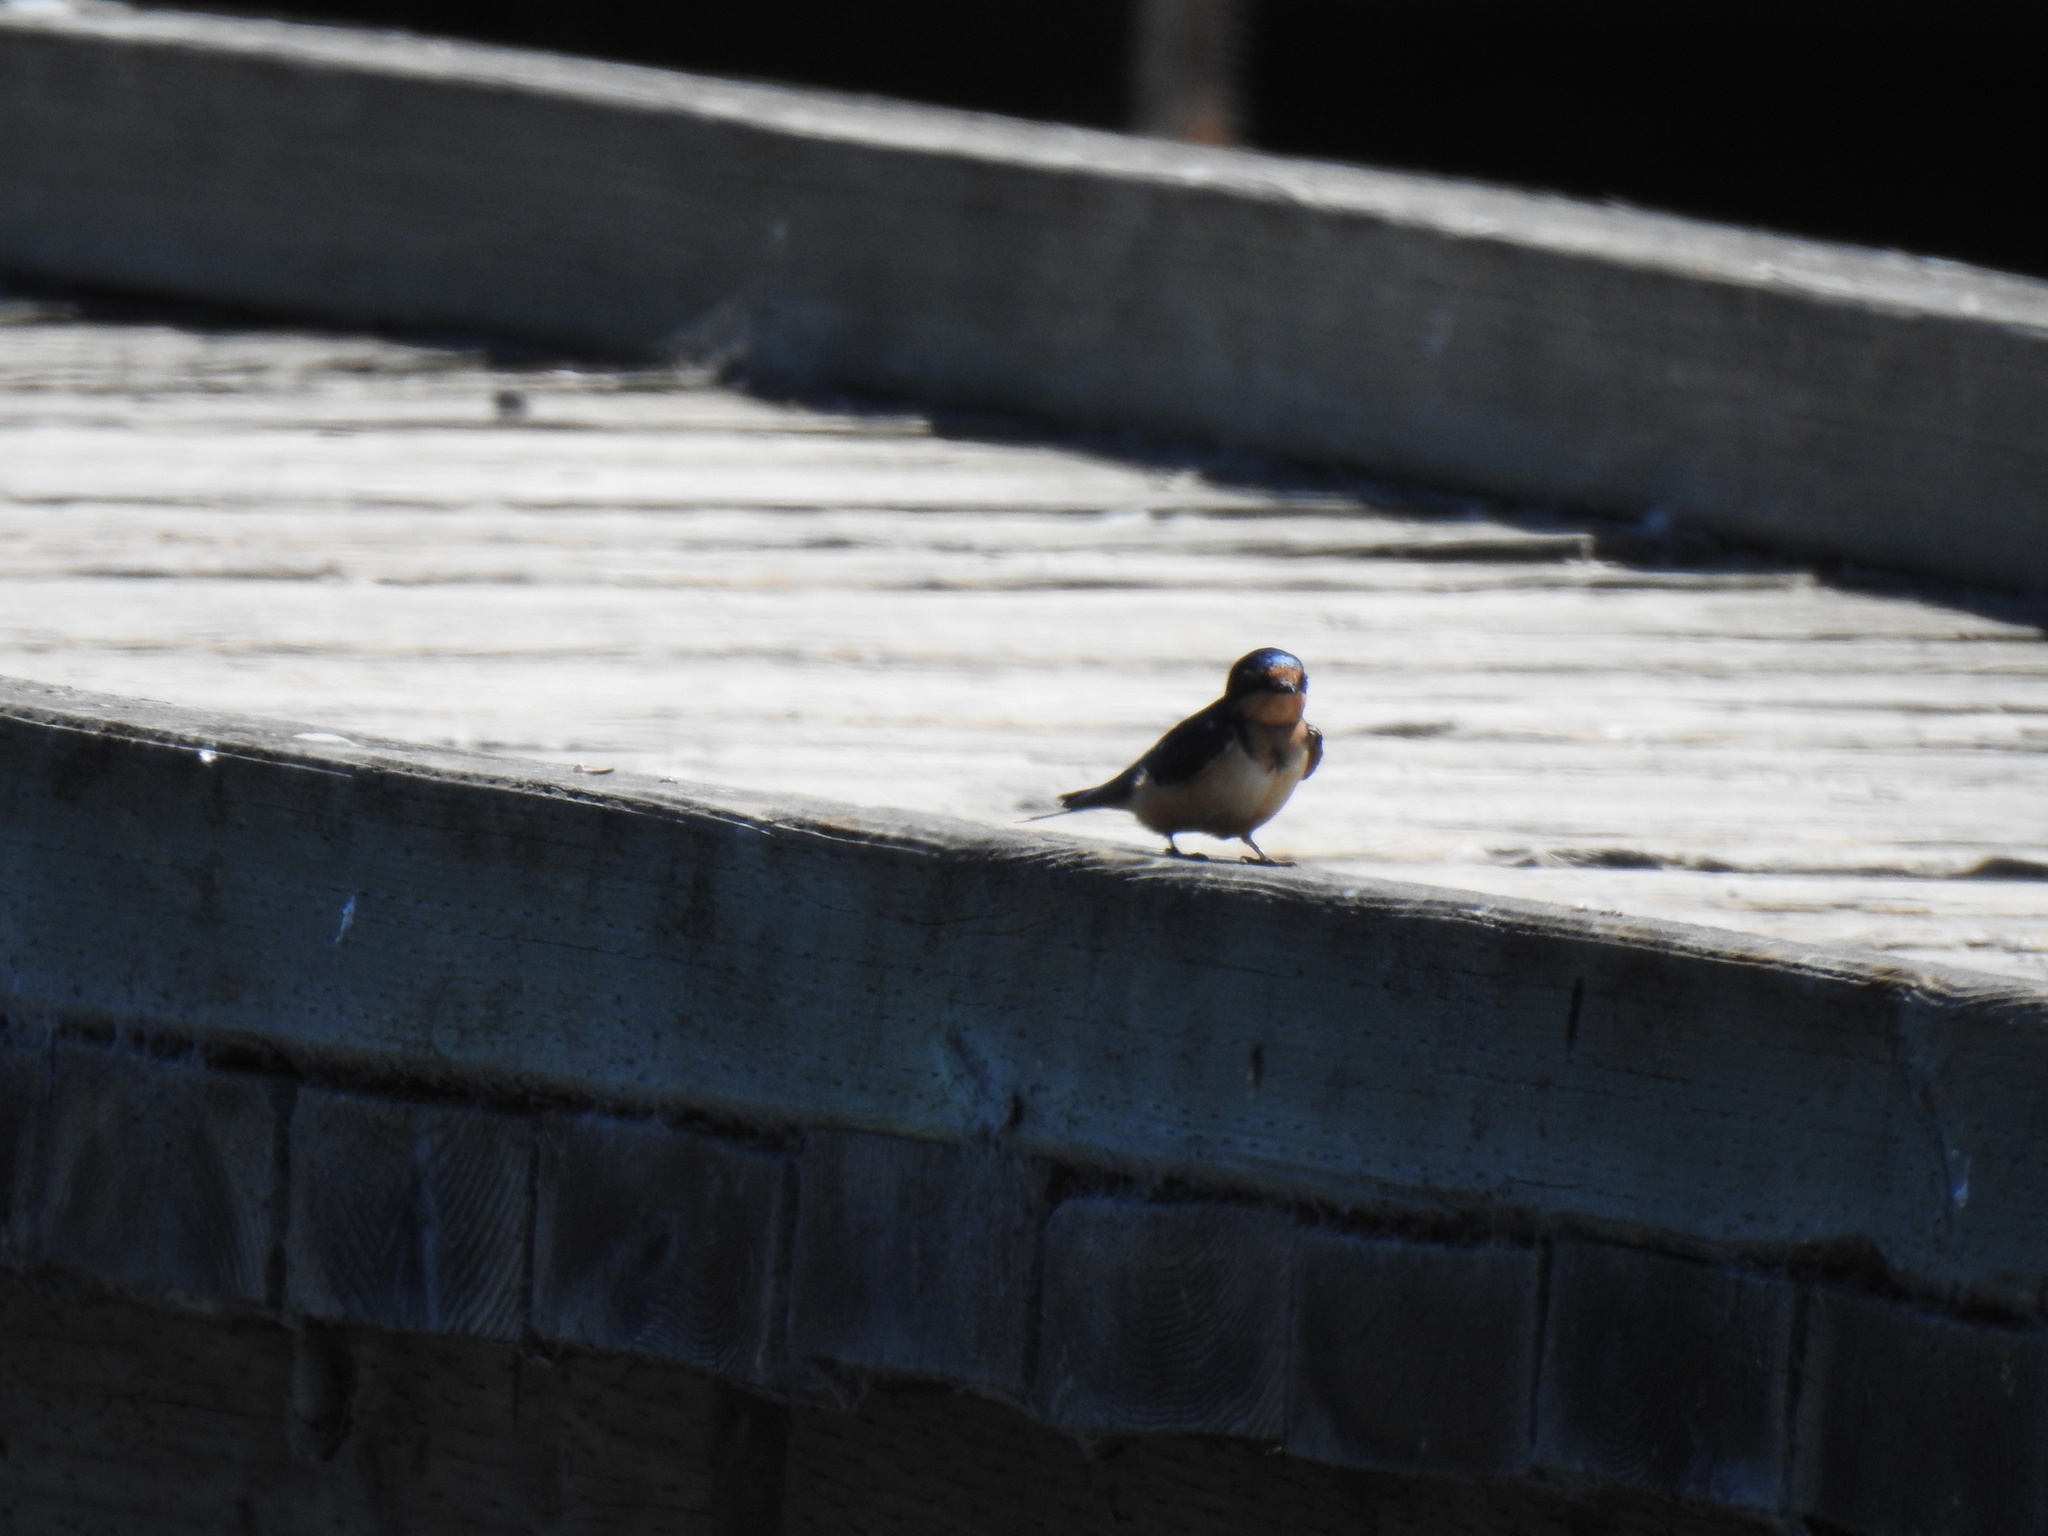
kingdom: Animalia
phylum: Chordata
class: Aves
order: Passeriformes
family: Hirundinidae
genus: Hirundo
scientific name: Hirundo rustica
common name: Barn swallow
